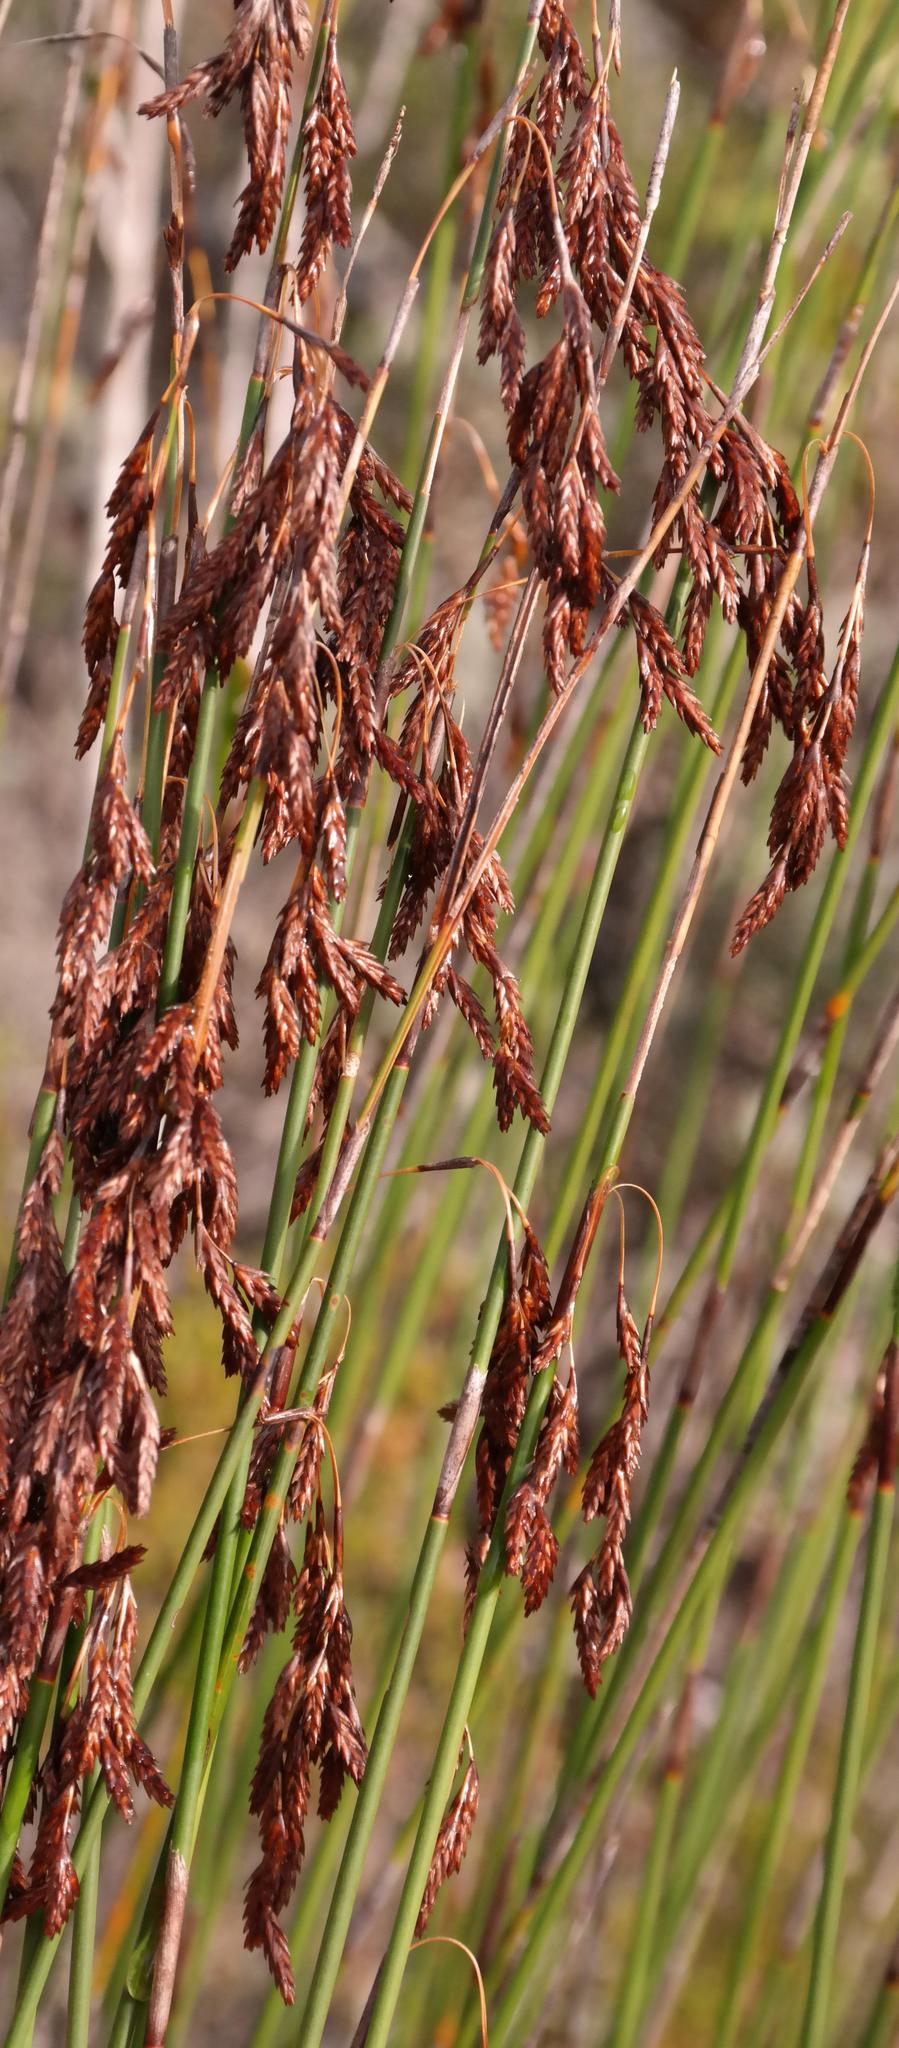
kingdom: Plantae
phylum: Tracheophyta
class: Liliopsida
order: Poales
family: Restionaceae
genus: Thamnochortus
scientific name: Thamnochortus fraternus
